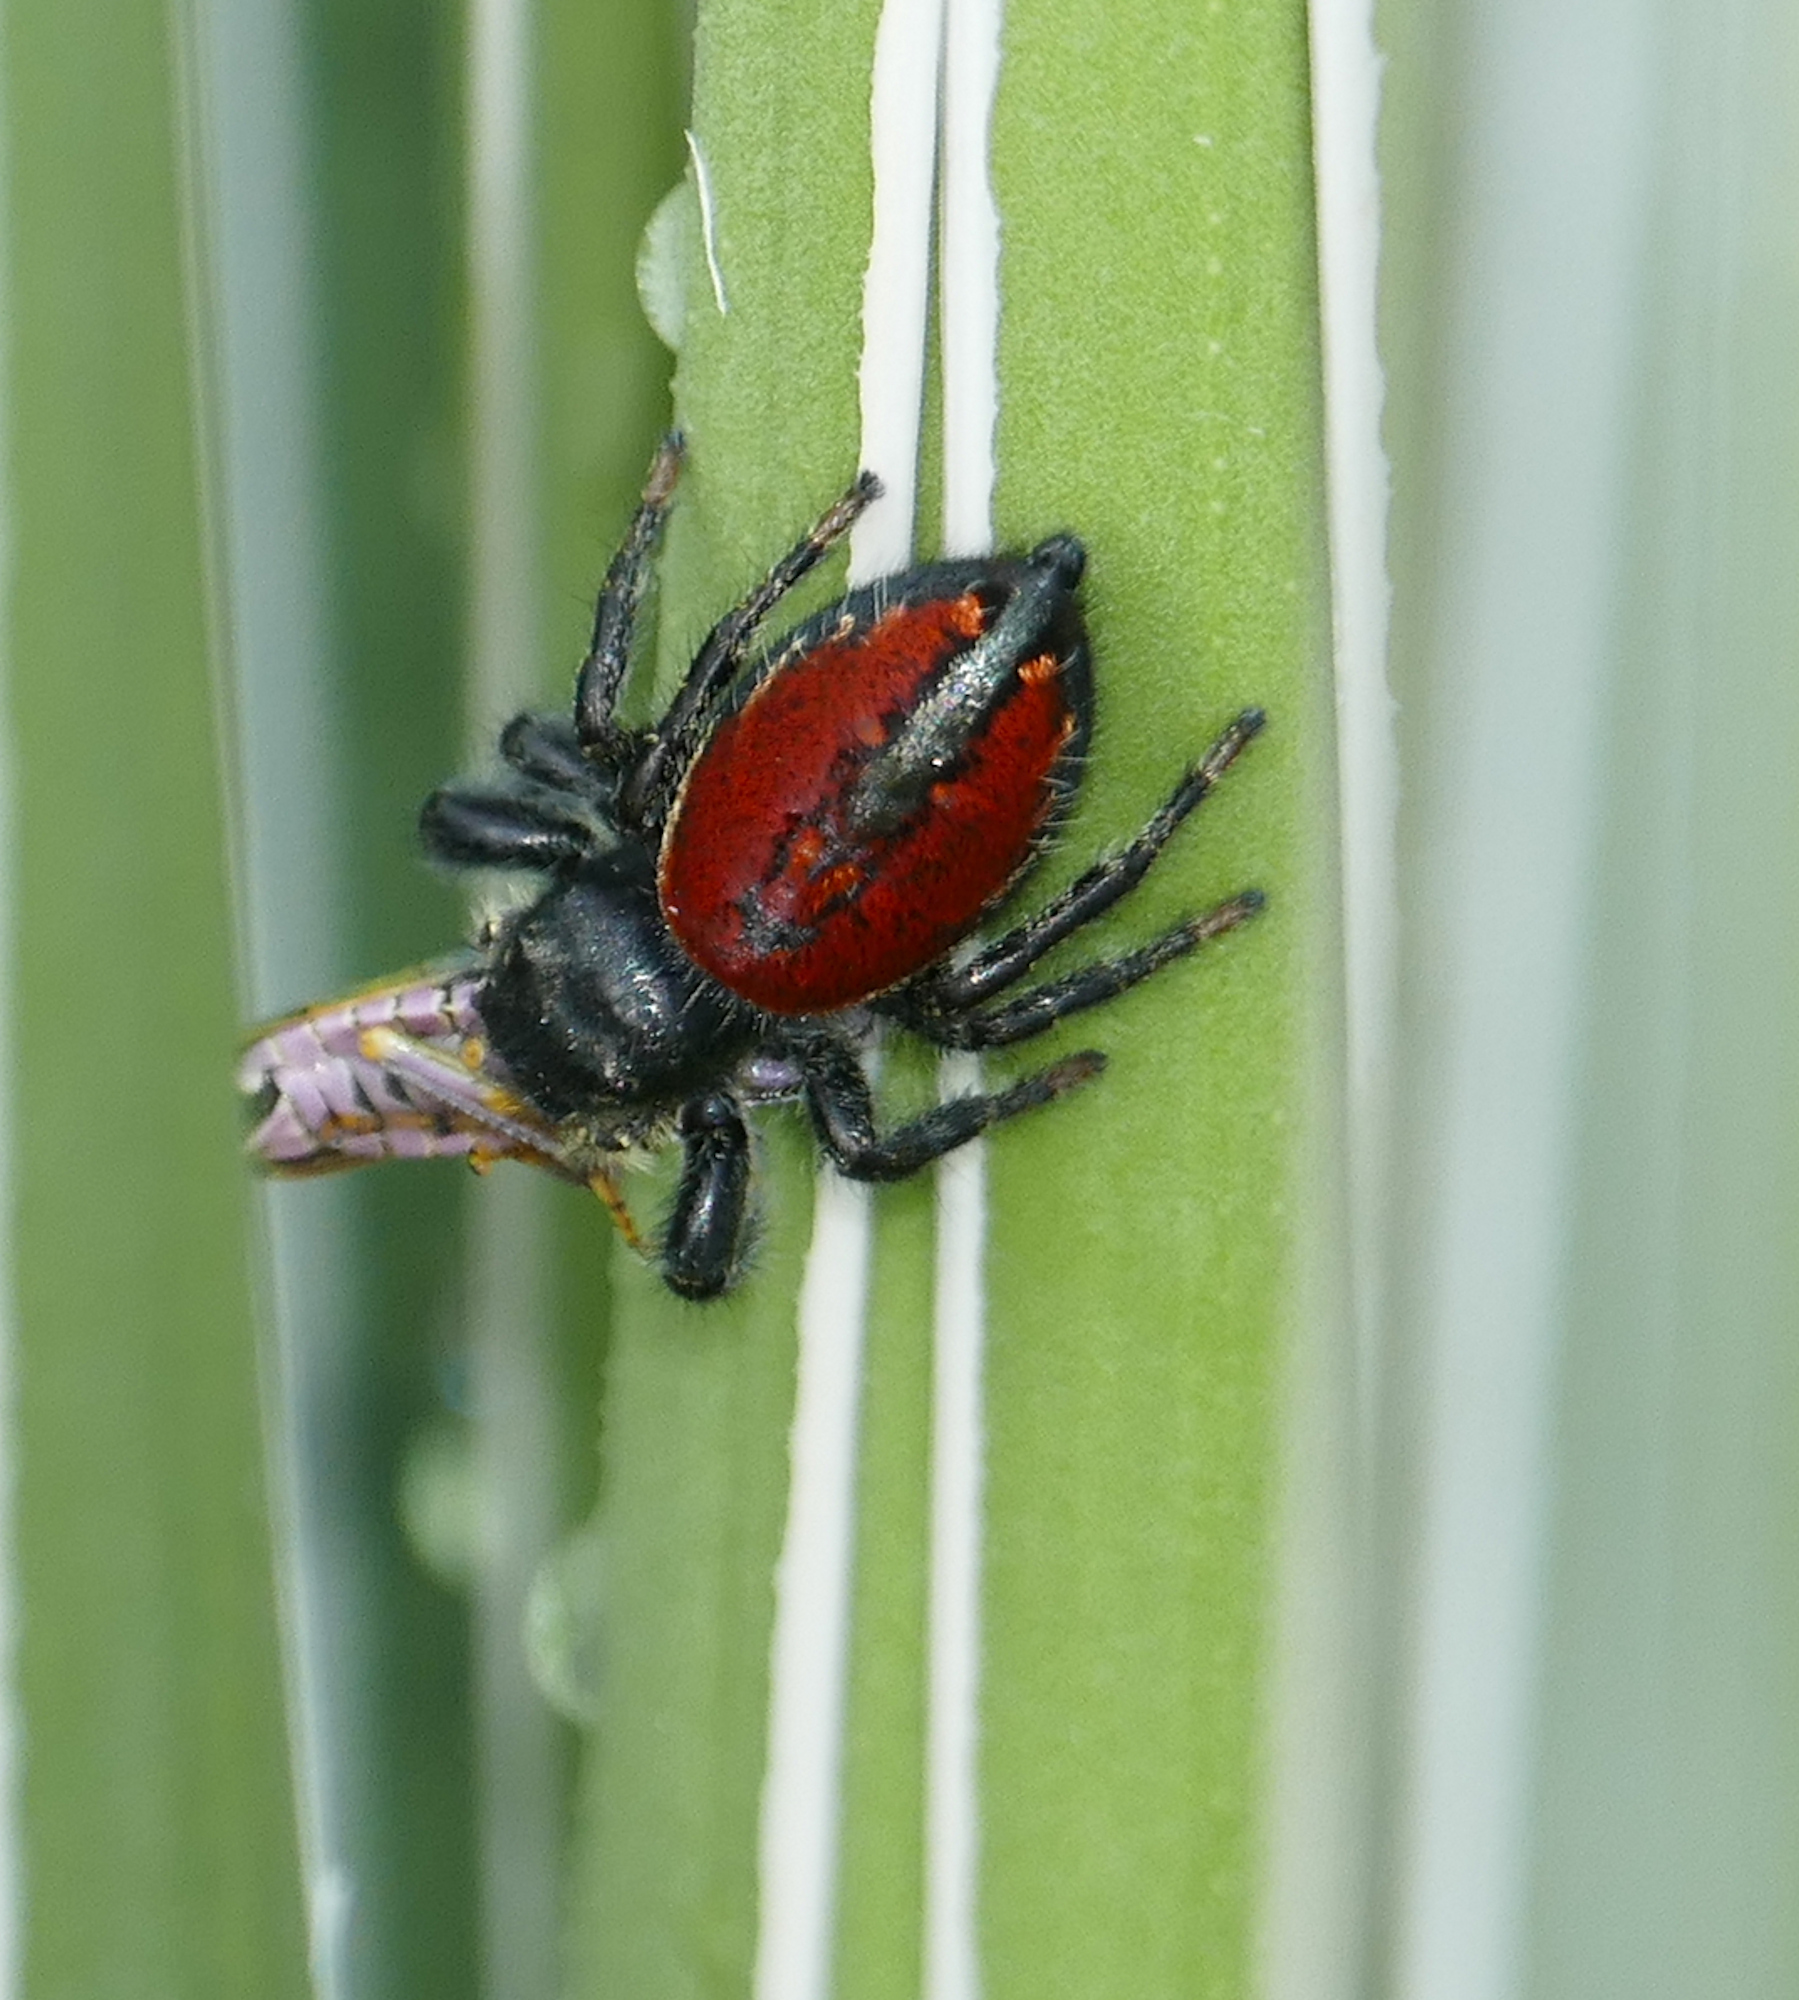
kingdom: Animalia
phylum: Arthropoda
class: Arachnida
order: Araneae
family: Salticidae
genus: Phidippus
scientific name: Phidippus carneus
